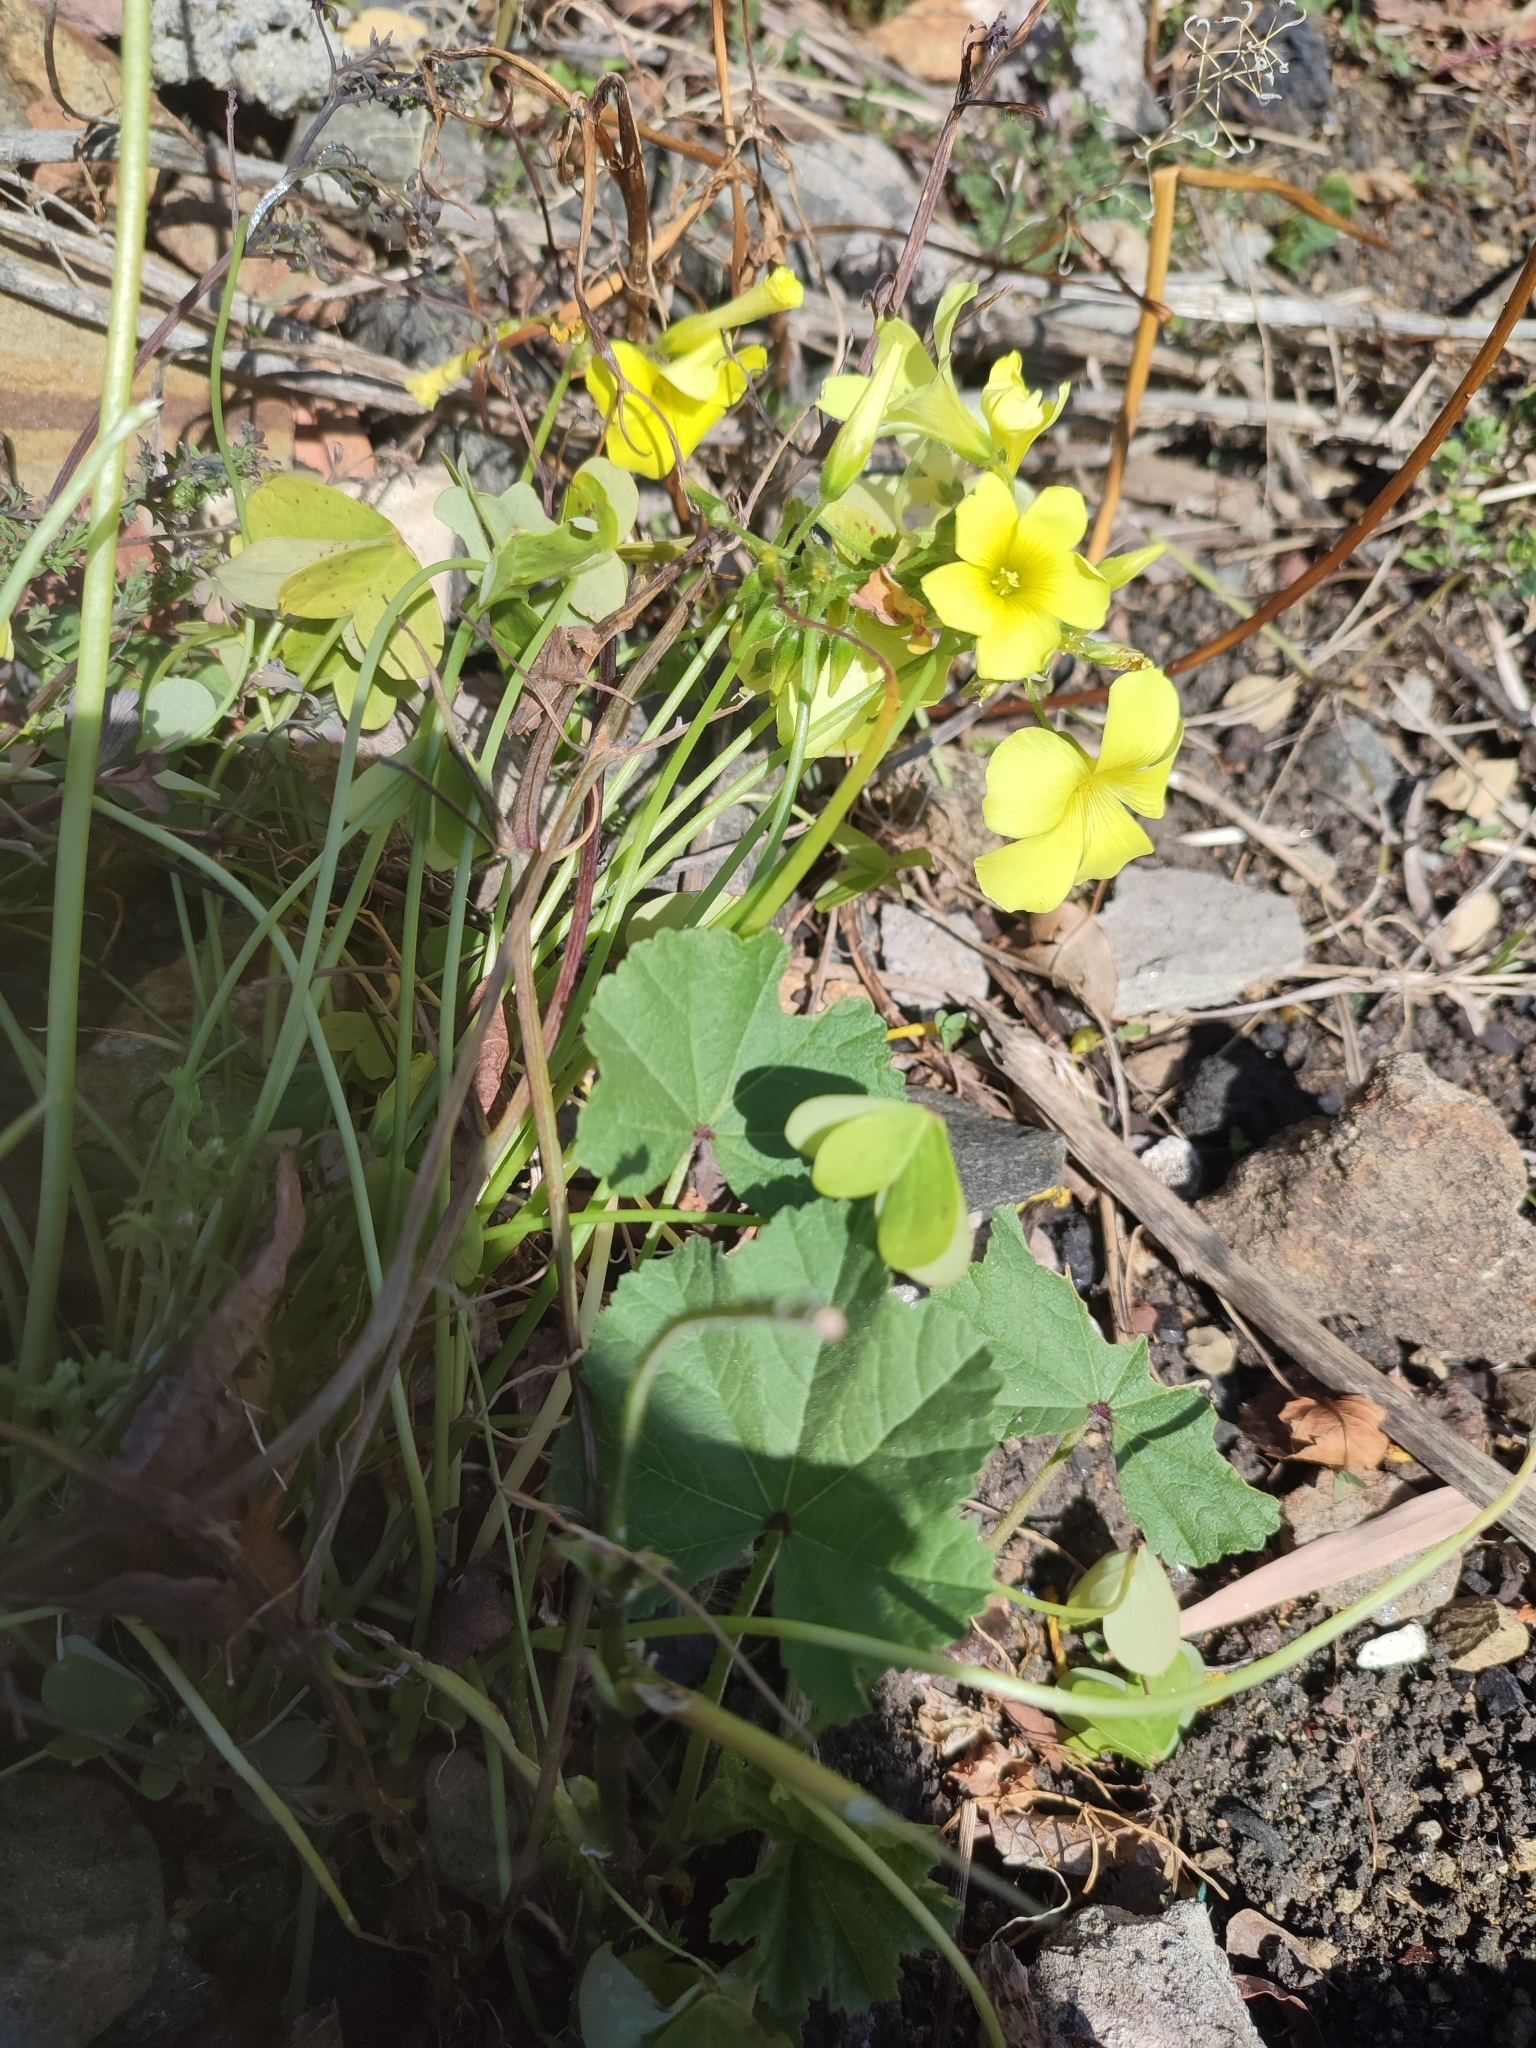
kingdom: Plantae
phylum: Tracheophyta
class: Magnoliopsida
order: Oxalidales
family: Oxalidaceae
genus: Oxalis
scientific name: Oxalis pes-caprae
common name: Bermuda-buttercup
